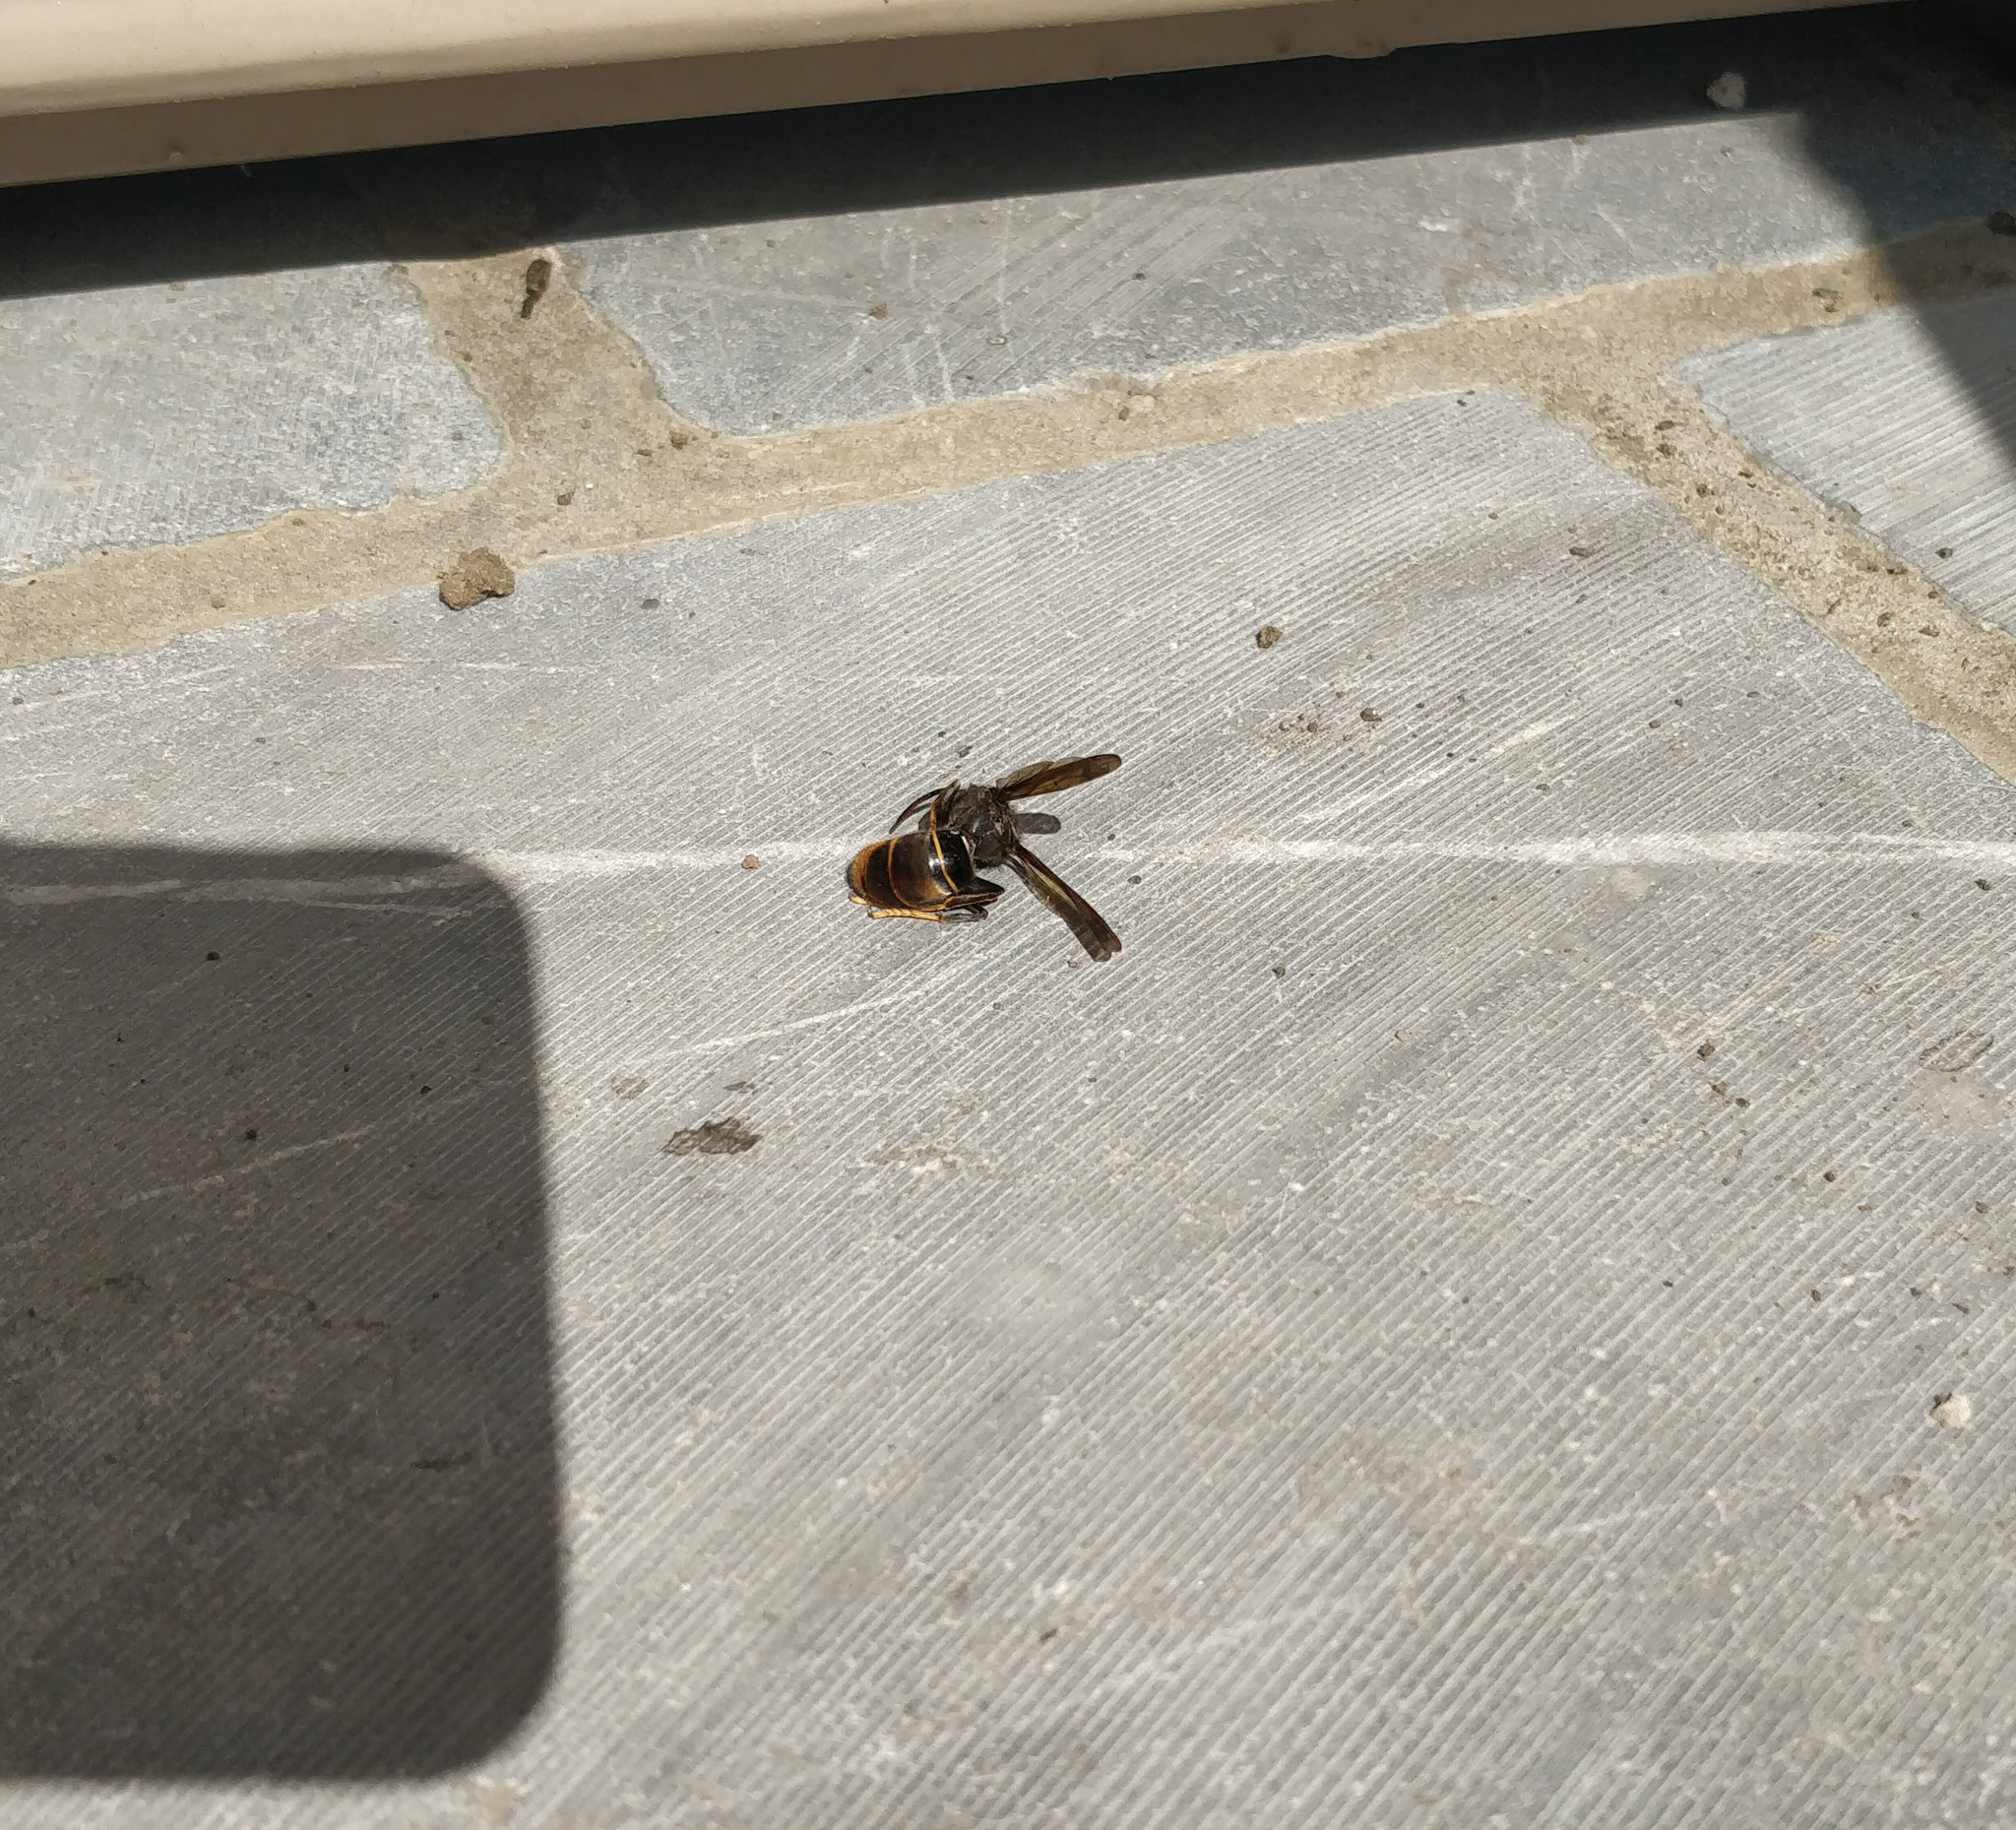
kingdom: Animalia
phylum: Arthropoda
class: Insecta
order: Hymenoptera
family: Vespidae
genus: Vespa
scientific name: Vespa velutina
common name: Asian hornet
